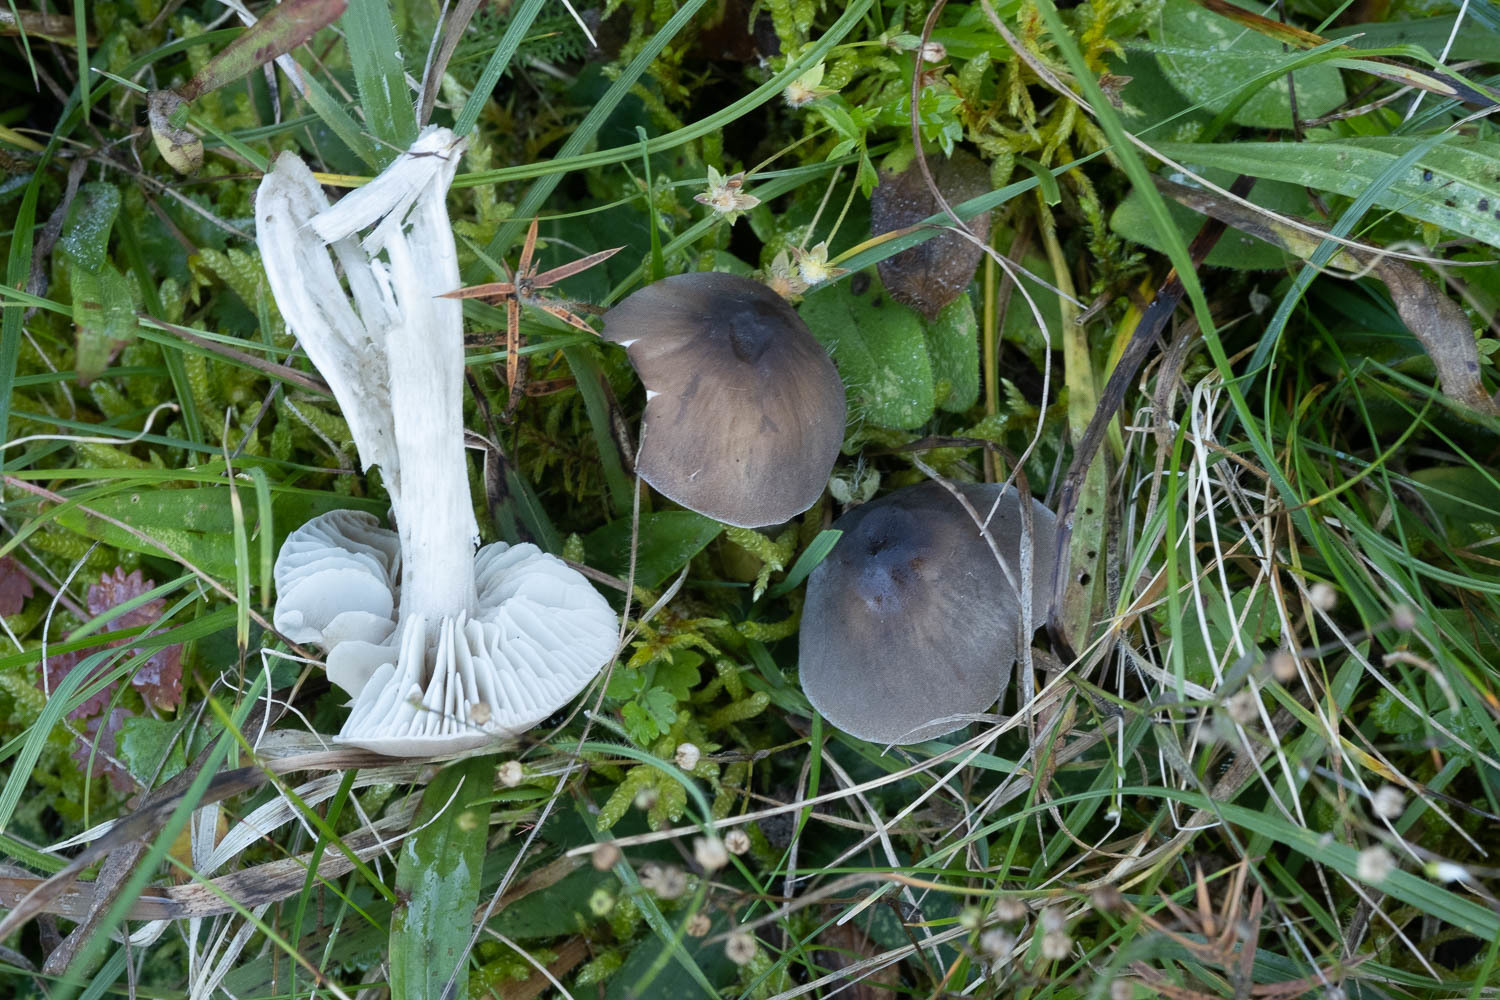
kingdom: Fungi
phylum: Basidiomycota
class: Agaricomycetes
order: Agaricales
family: Tricholomataceae
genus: Dermoloma
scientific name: Dermoloma cuneifolium
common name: Crazed cap
